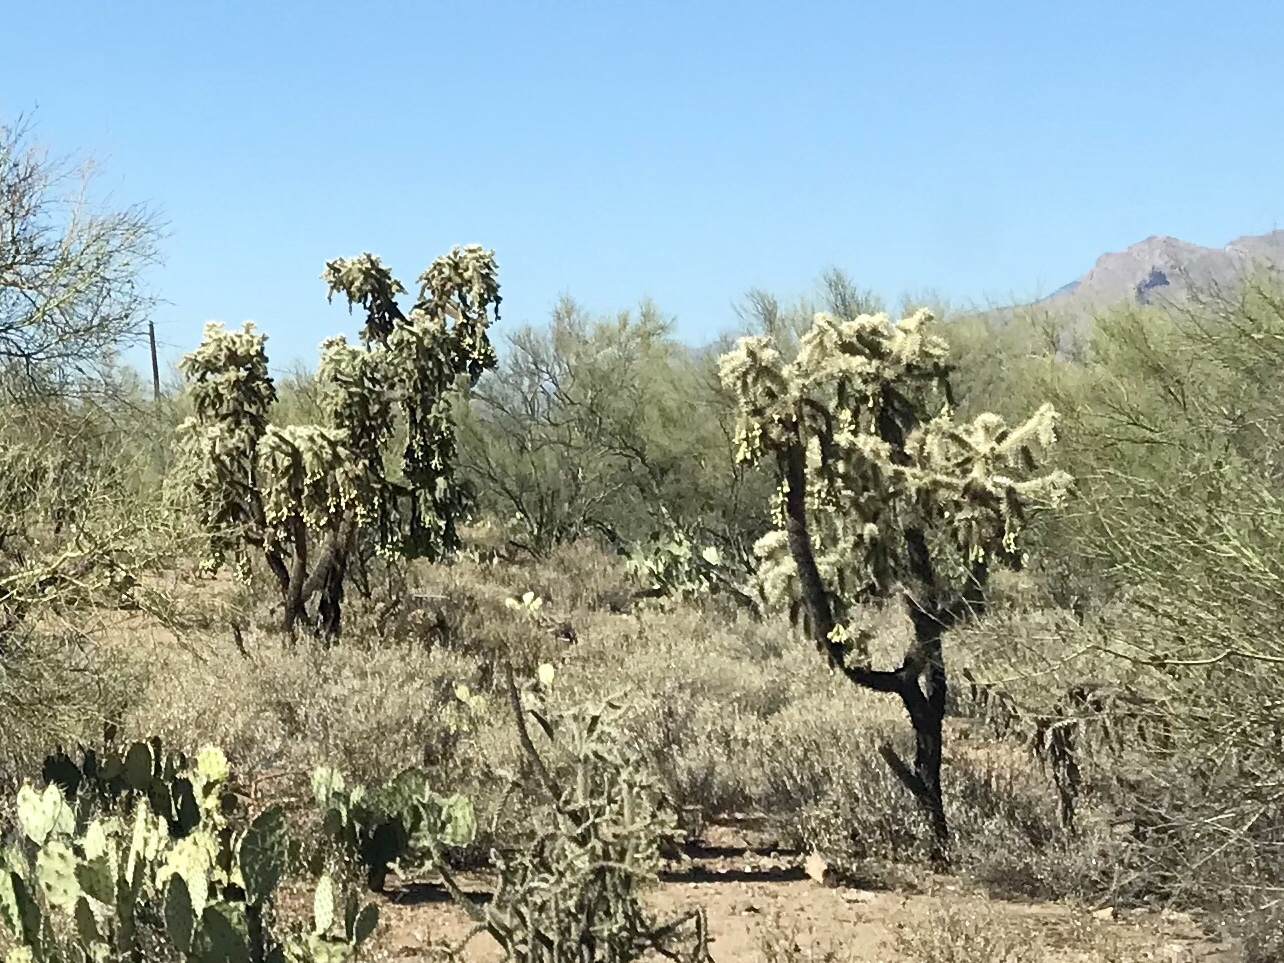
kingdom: Plantae
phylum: Tracheophyta
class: Magnoliopsida
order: Caryophyllales
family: Cactaceae
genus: Cylindropuntia
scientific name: Cylindropuntia fulgida
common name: Jumping cholla
